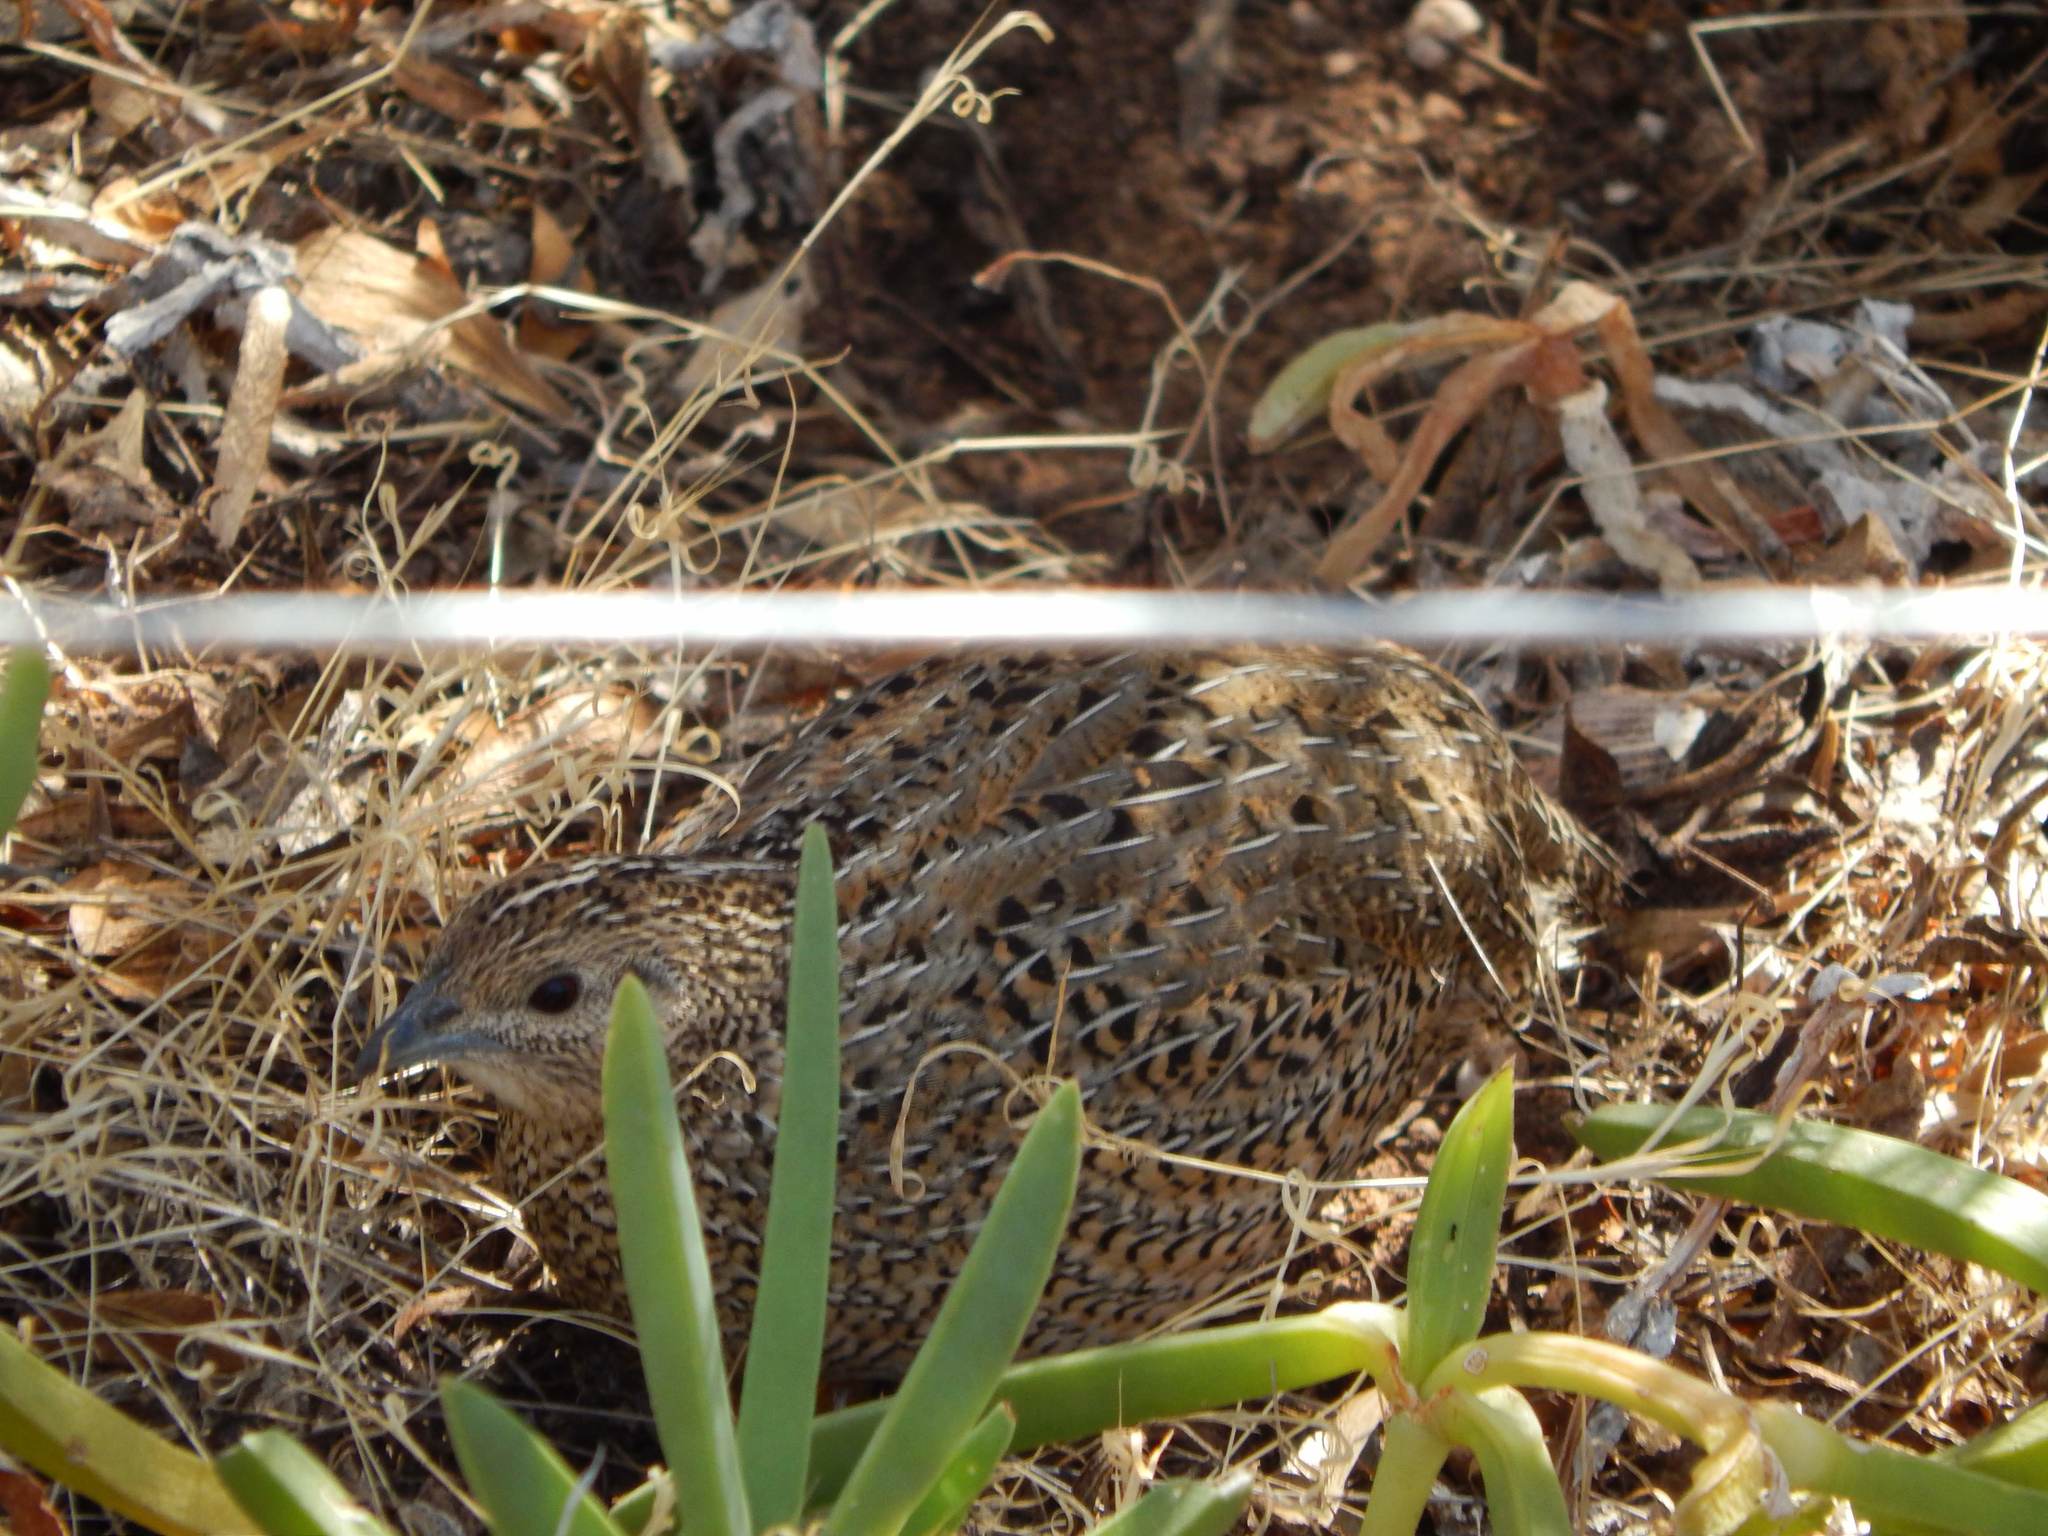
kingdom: Animalia
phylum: Chordata
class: Aves
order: Galliformes
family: Phasianidae
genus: Synoicus
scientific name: Synoicus ypsilophorus
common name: Brown quail
